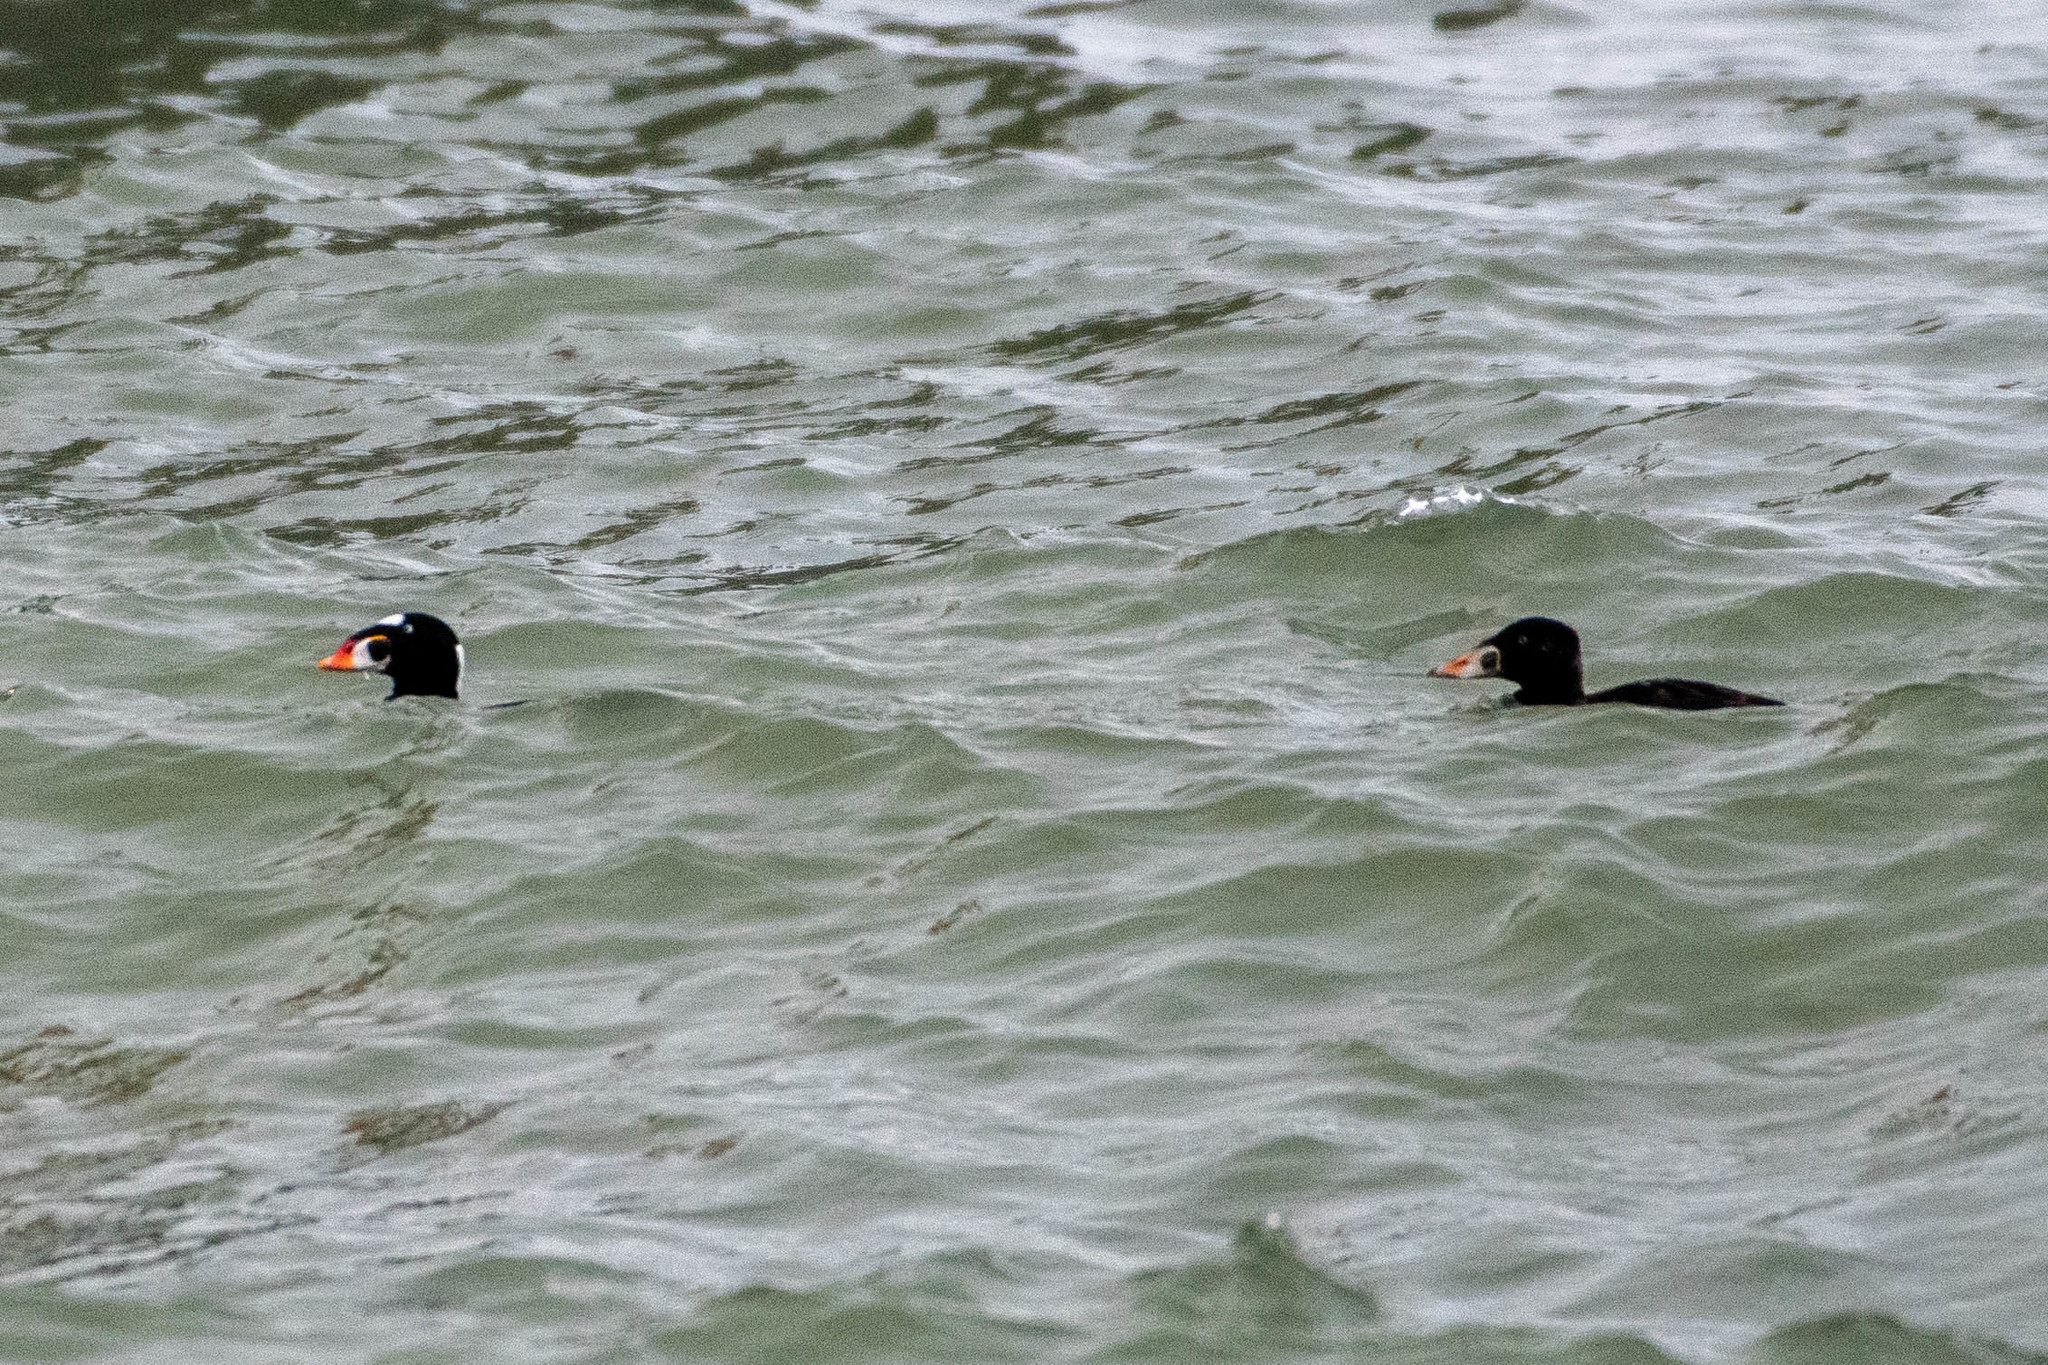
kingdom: Animalia
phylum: Chordata
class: Aves
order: Anseriformes
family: Anatidae
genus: Melanitta
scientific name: Melanitta perspicillata
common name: Surf scoter
